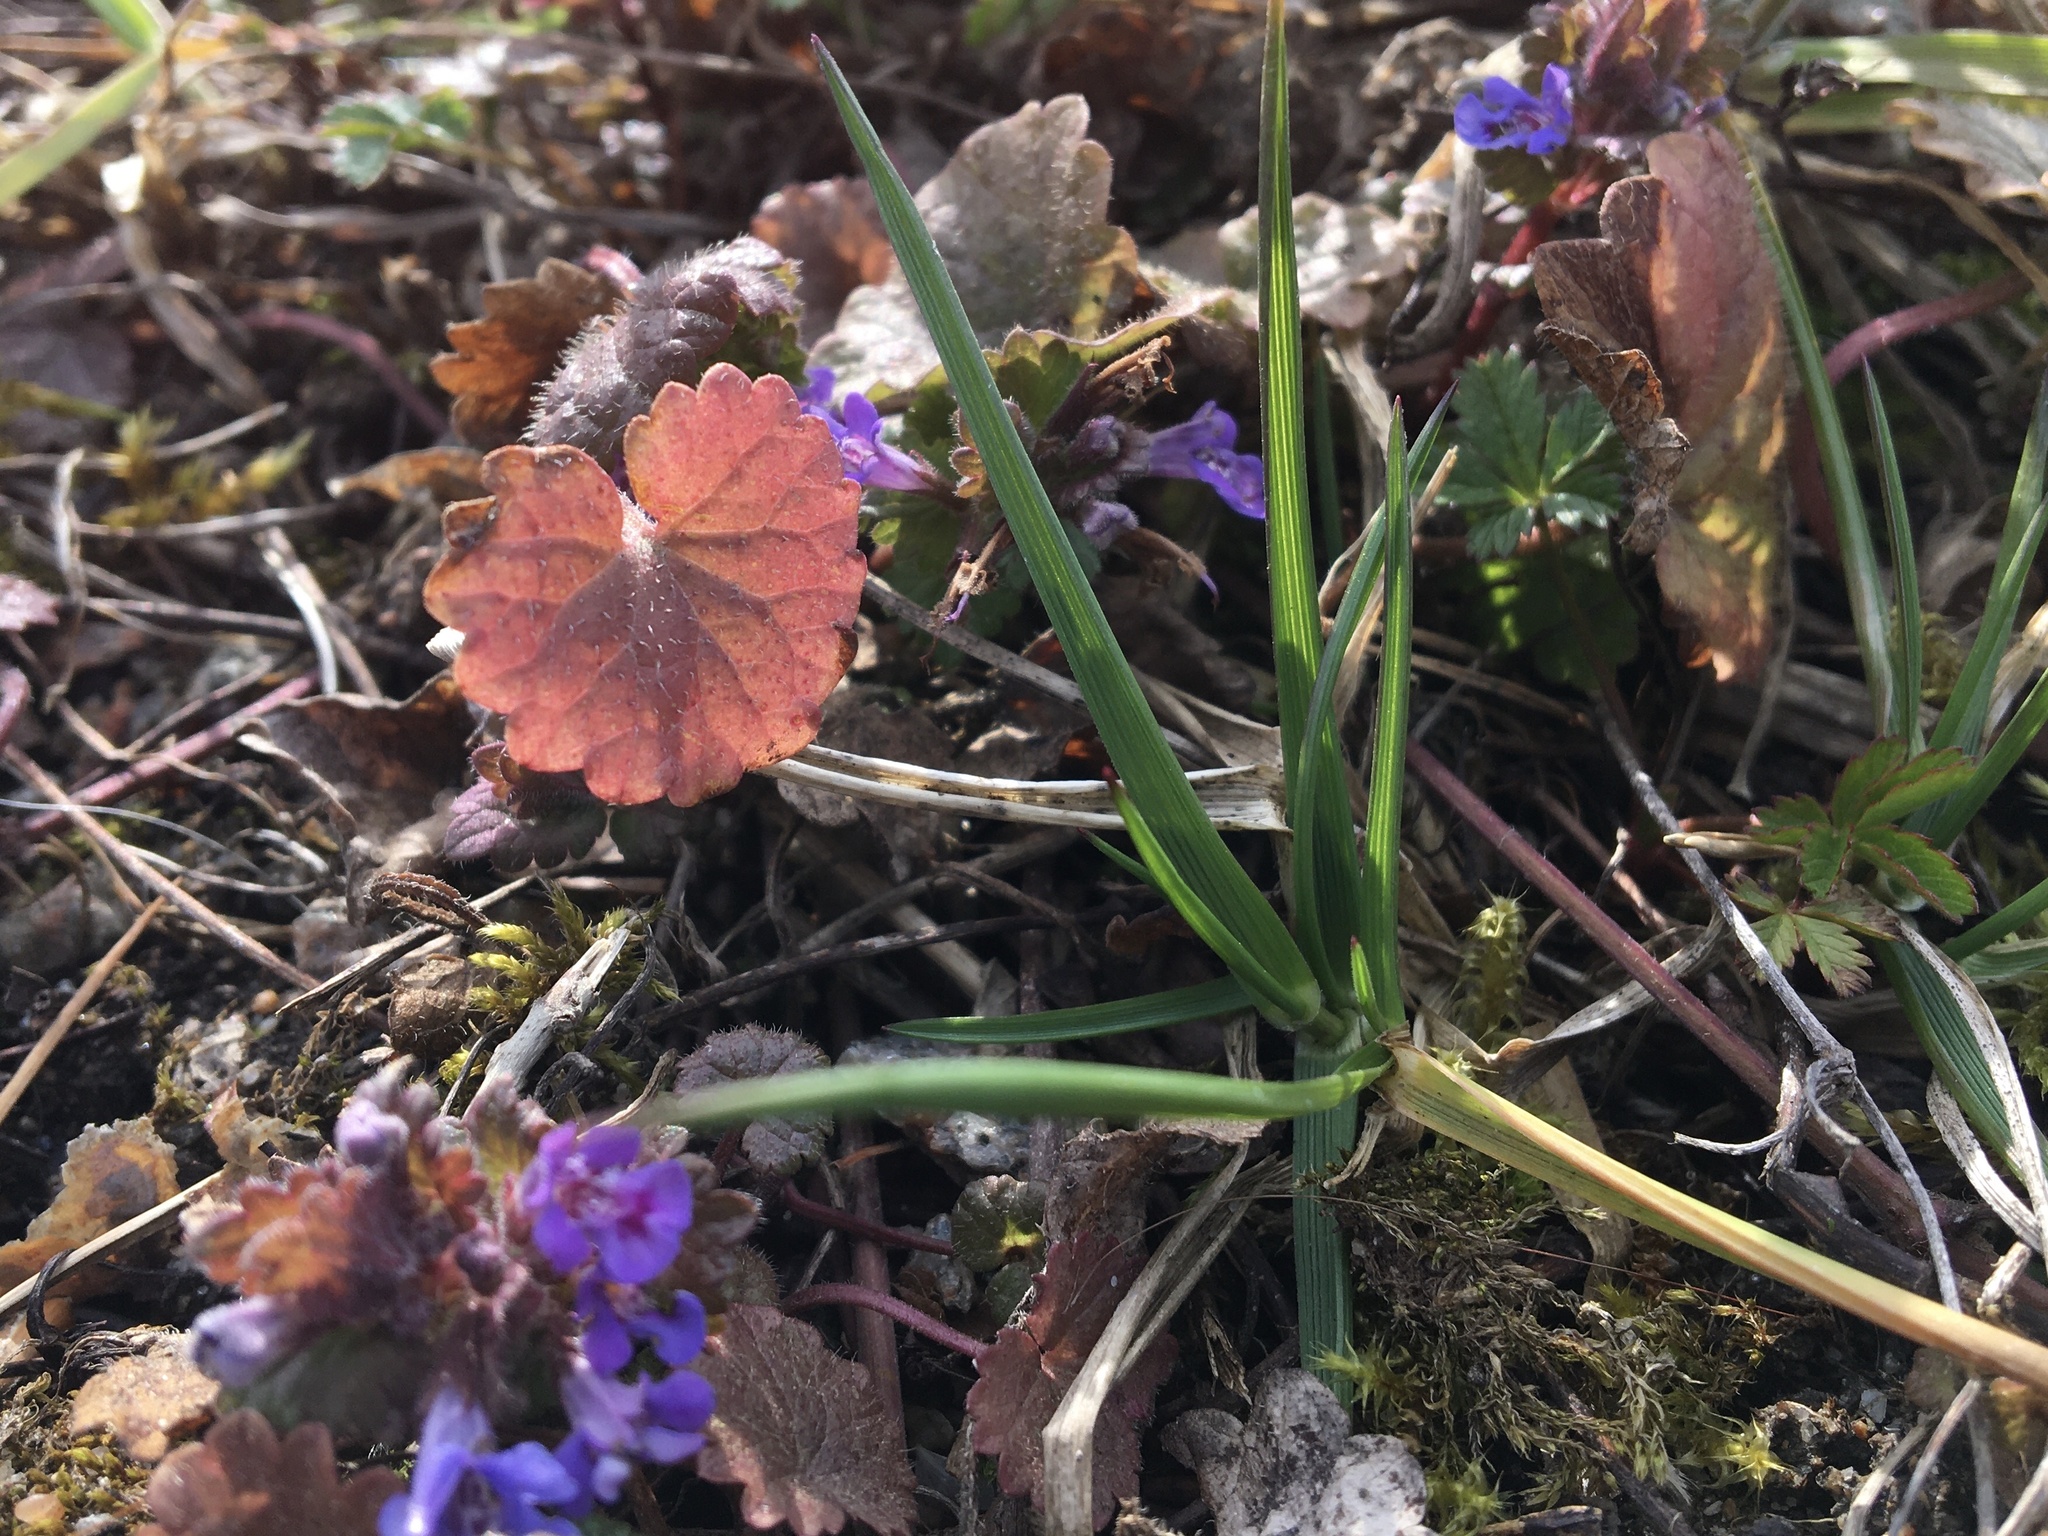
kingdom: Plantae
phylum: Tracheophyta
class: Magnoliopsida
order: Lamiales
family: Lamiaceae
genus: Glechoma
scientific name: Glechoma hederacea
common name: Ground ivy
